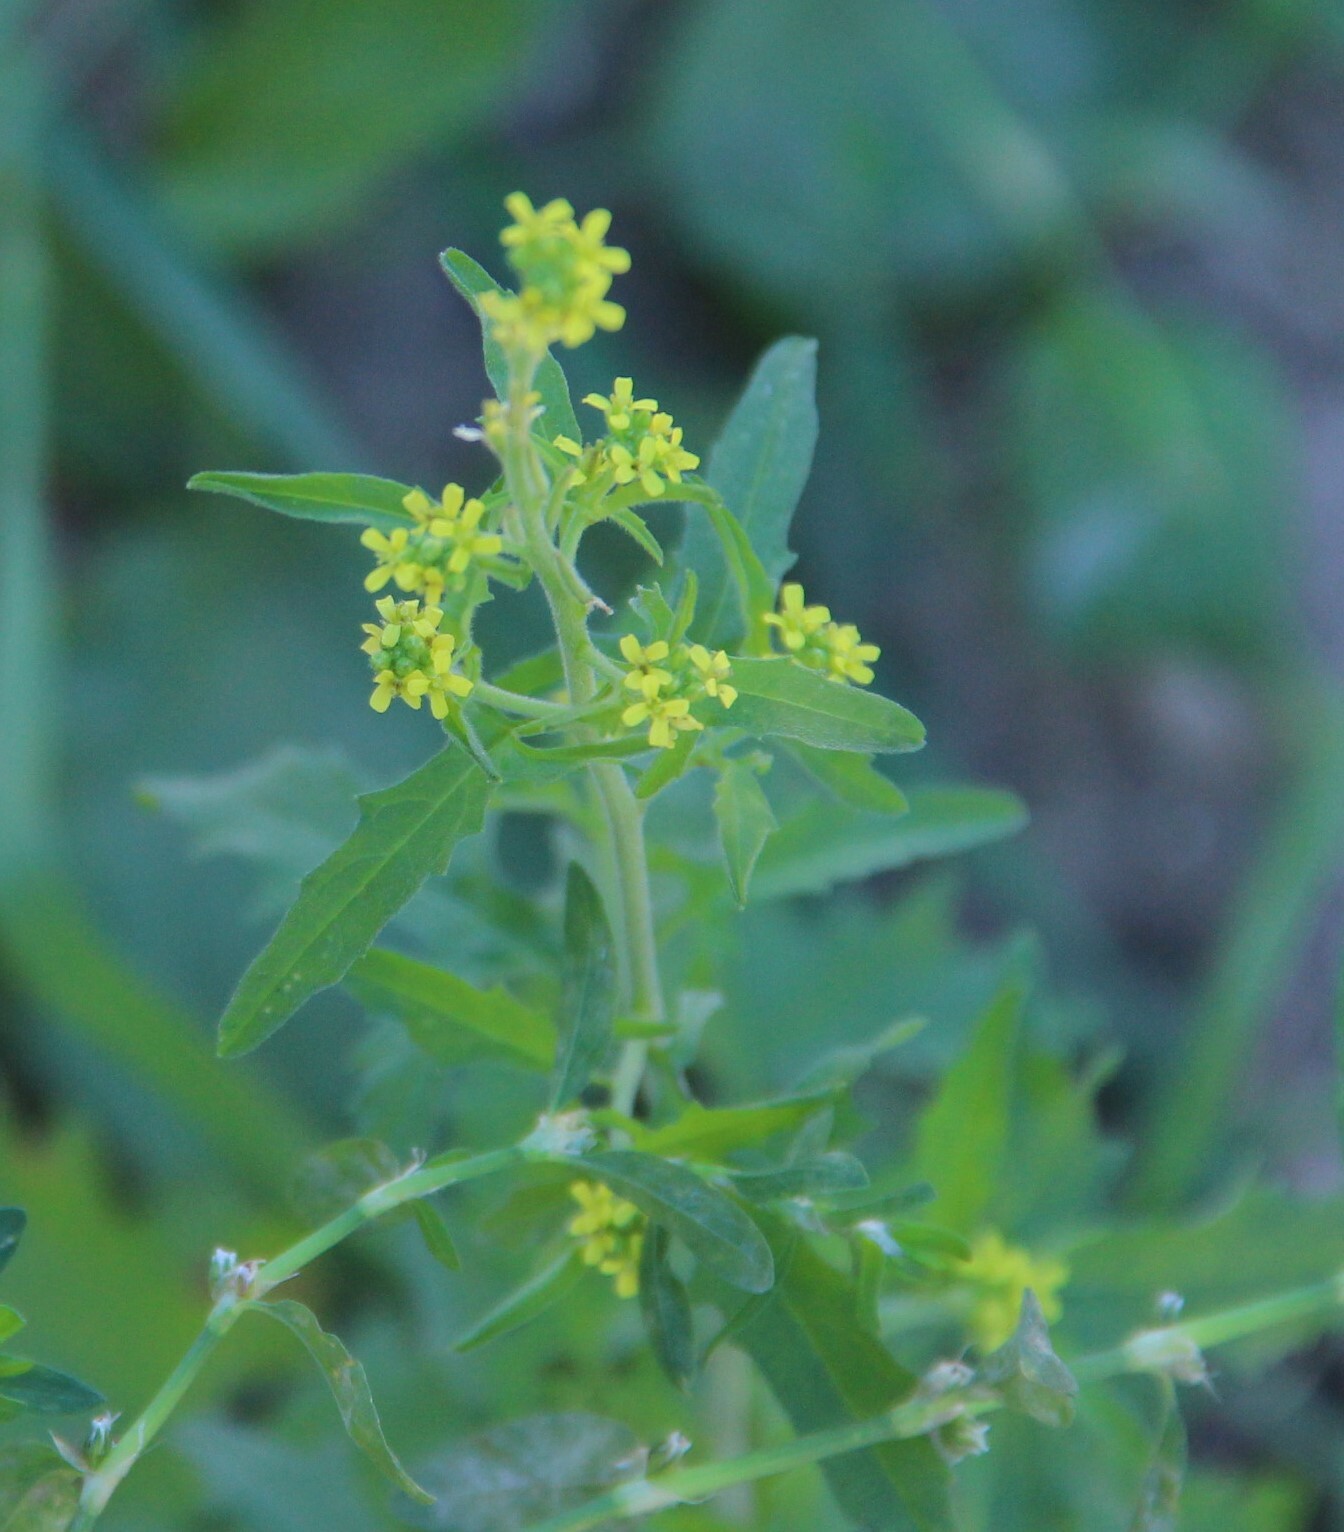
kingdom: Plantae
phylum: Tracheophyta
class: Magnoliopsida
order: Brassicales
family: Brassicaceae
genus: Sisymbrium
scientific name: Sisymbrium officinale
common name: Hedge mustard
